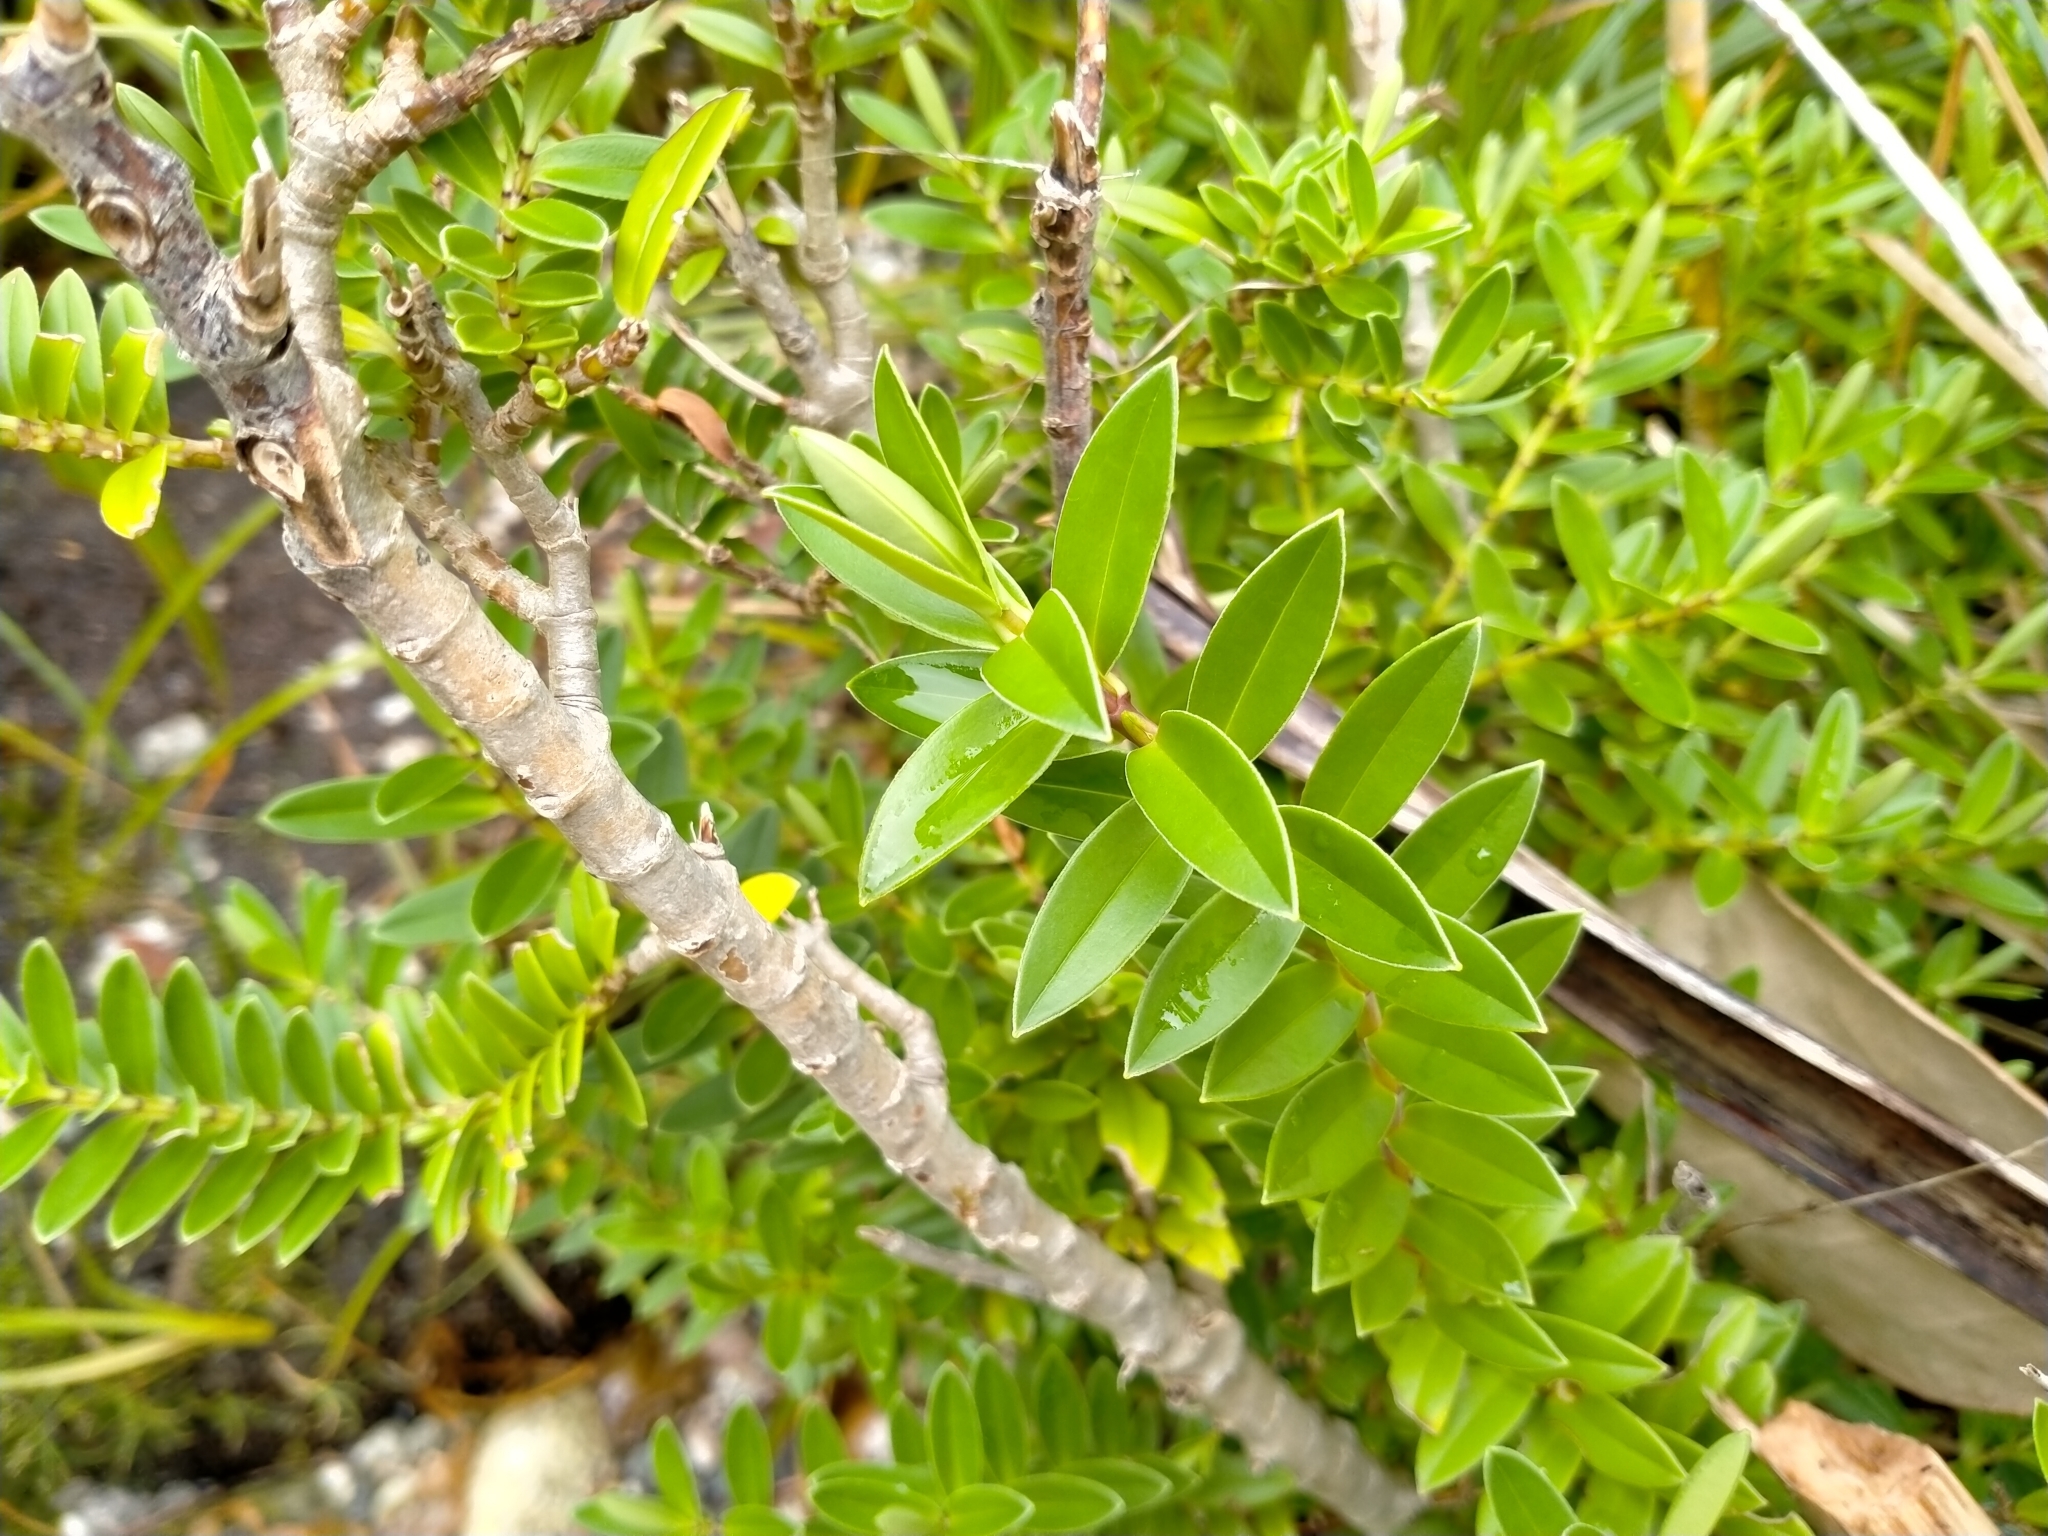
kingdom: Plantae
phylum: Tracheophyta
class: Magnoliopsida
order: Lamiales
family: Plantaginaceae
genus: Veronica
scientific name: Veronica elliptica
